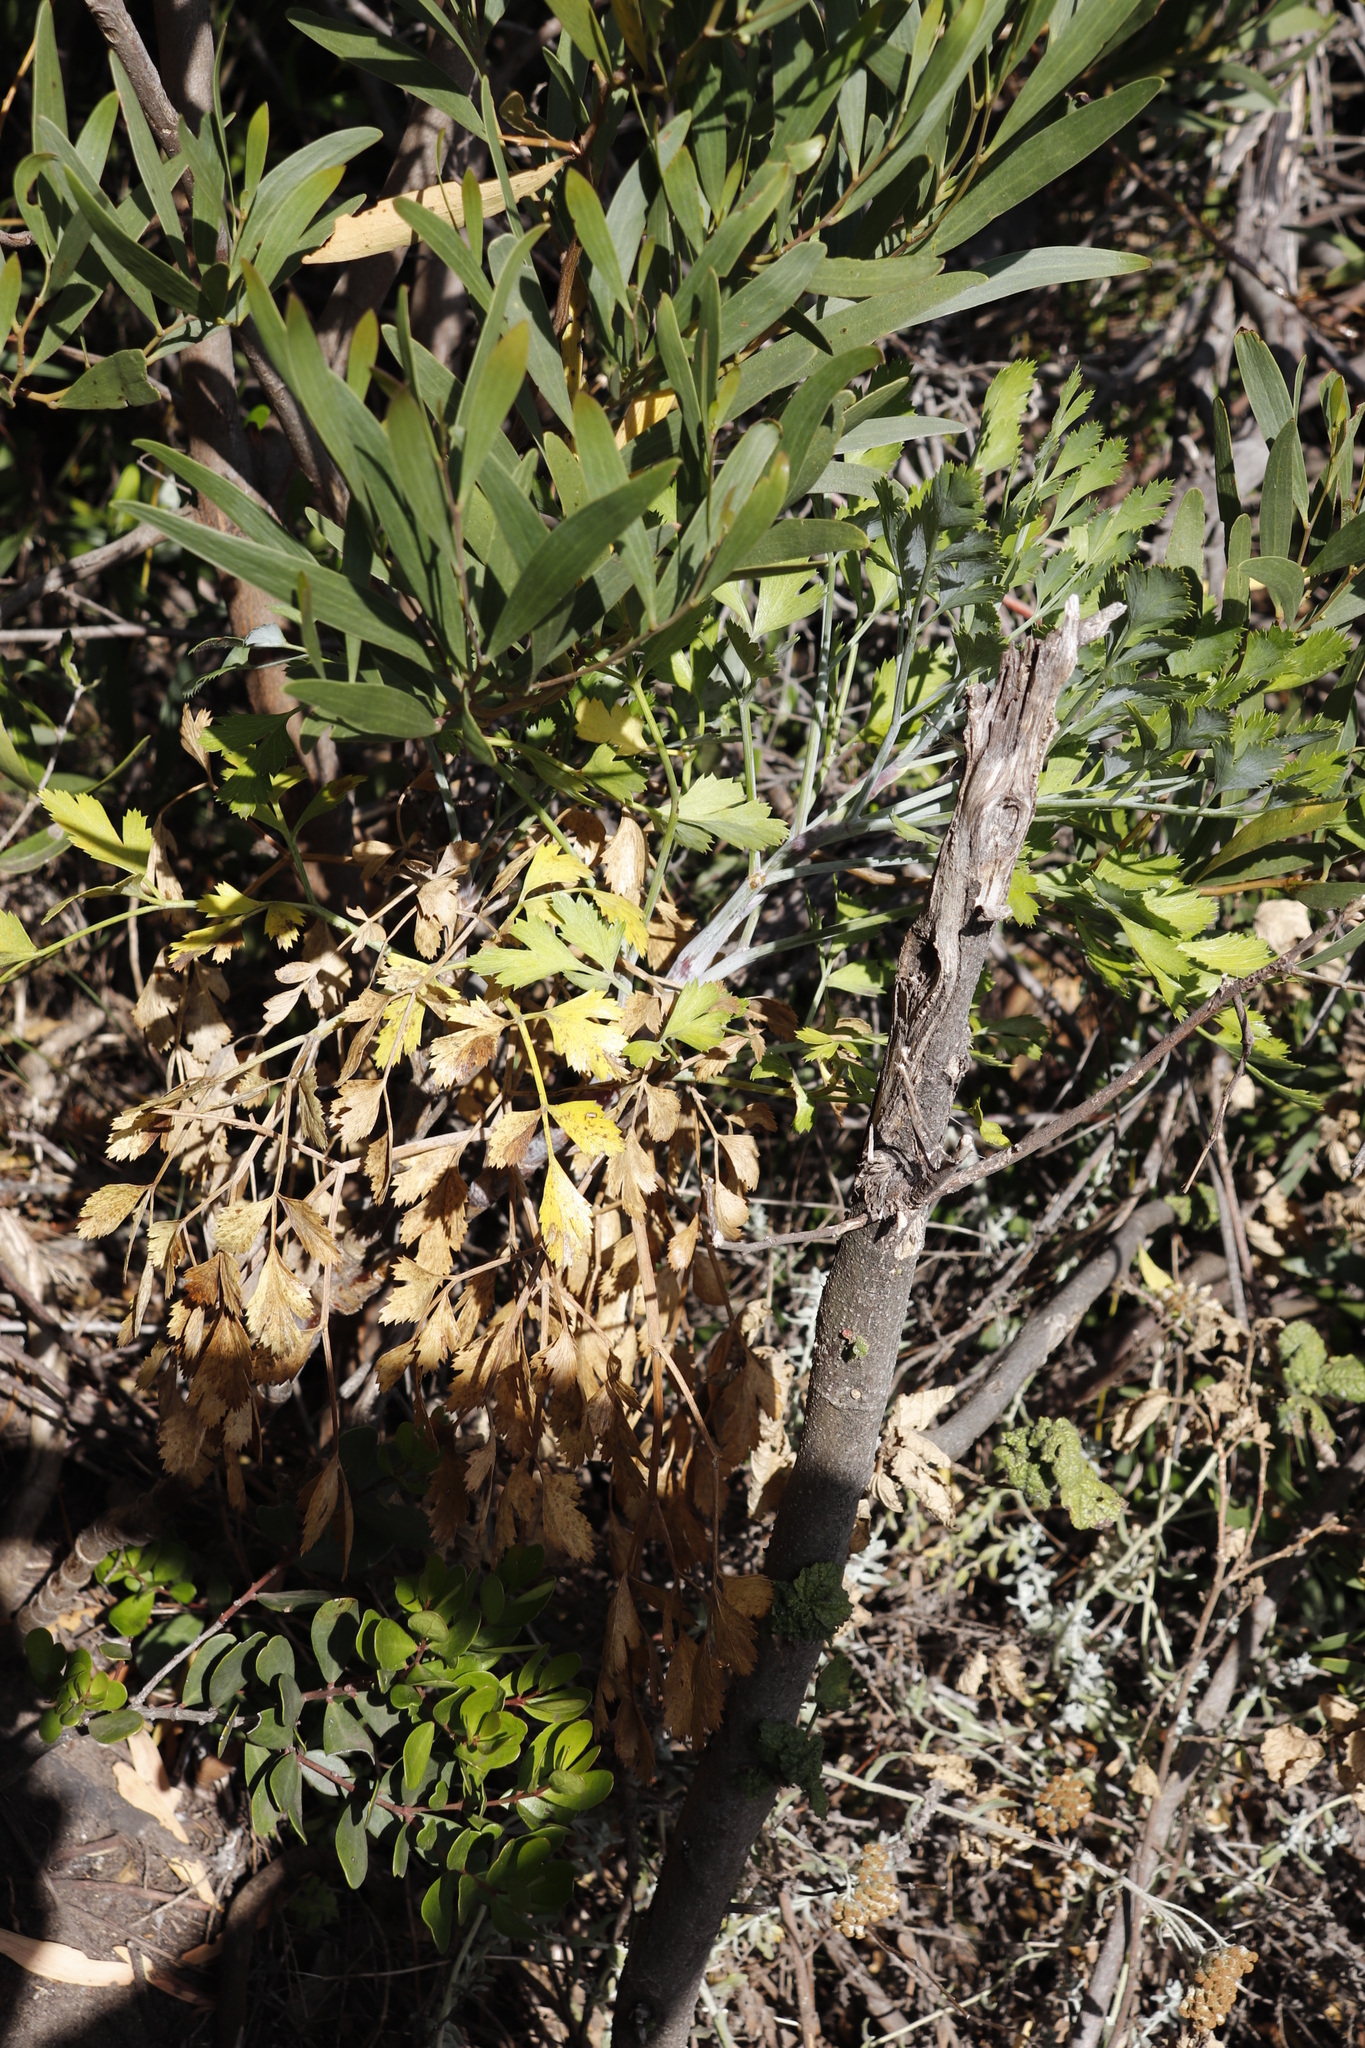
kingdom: Plantae
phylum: Tracheophyta
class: Magnoliopsida
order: Apiales
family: Apiaceae
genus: Notobubon
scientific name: Notobubon galbanum
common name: Blisterbush
